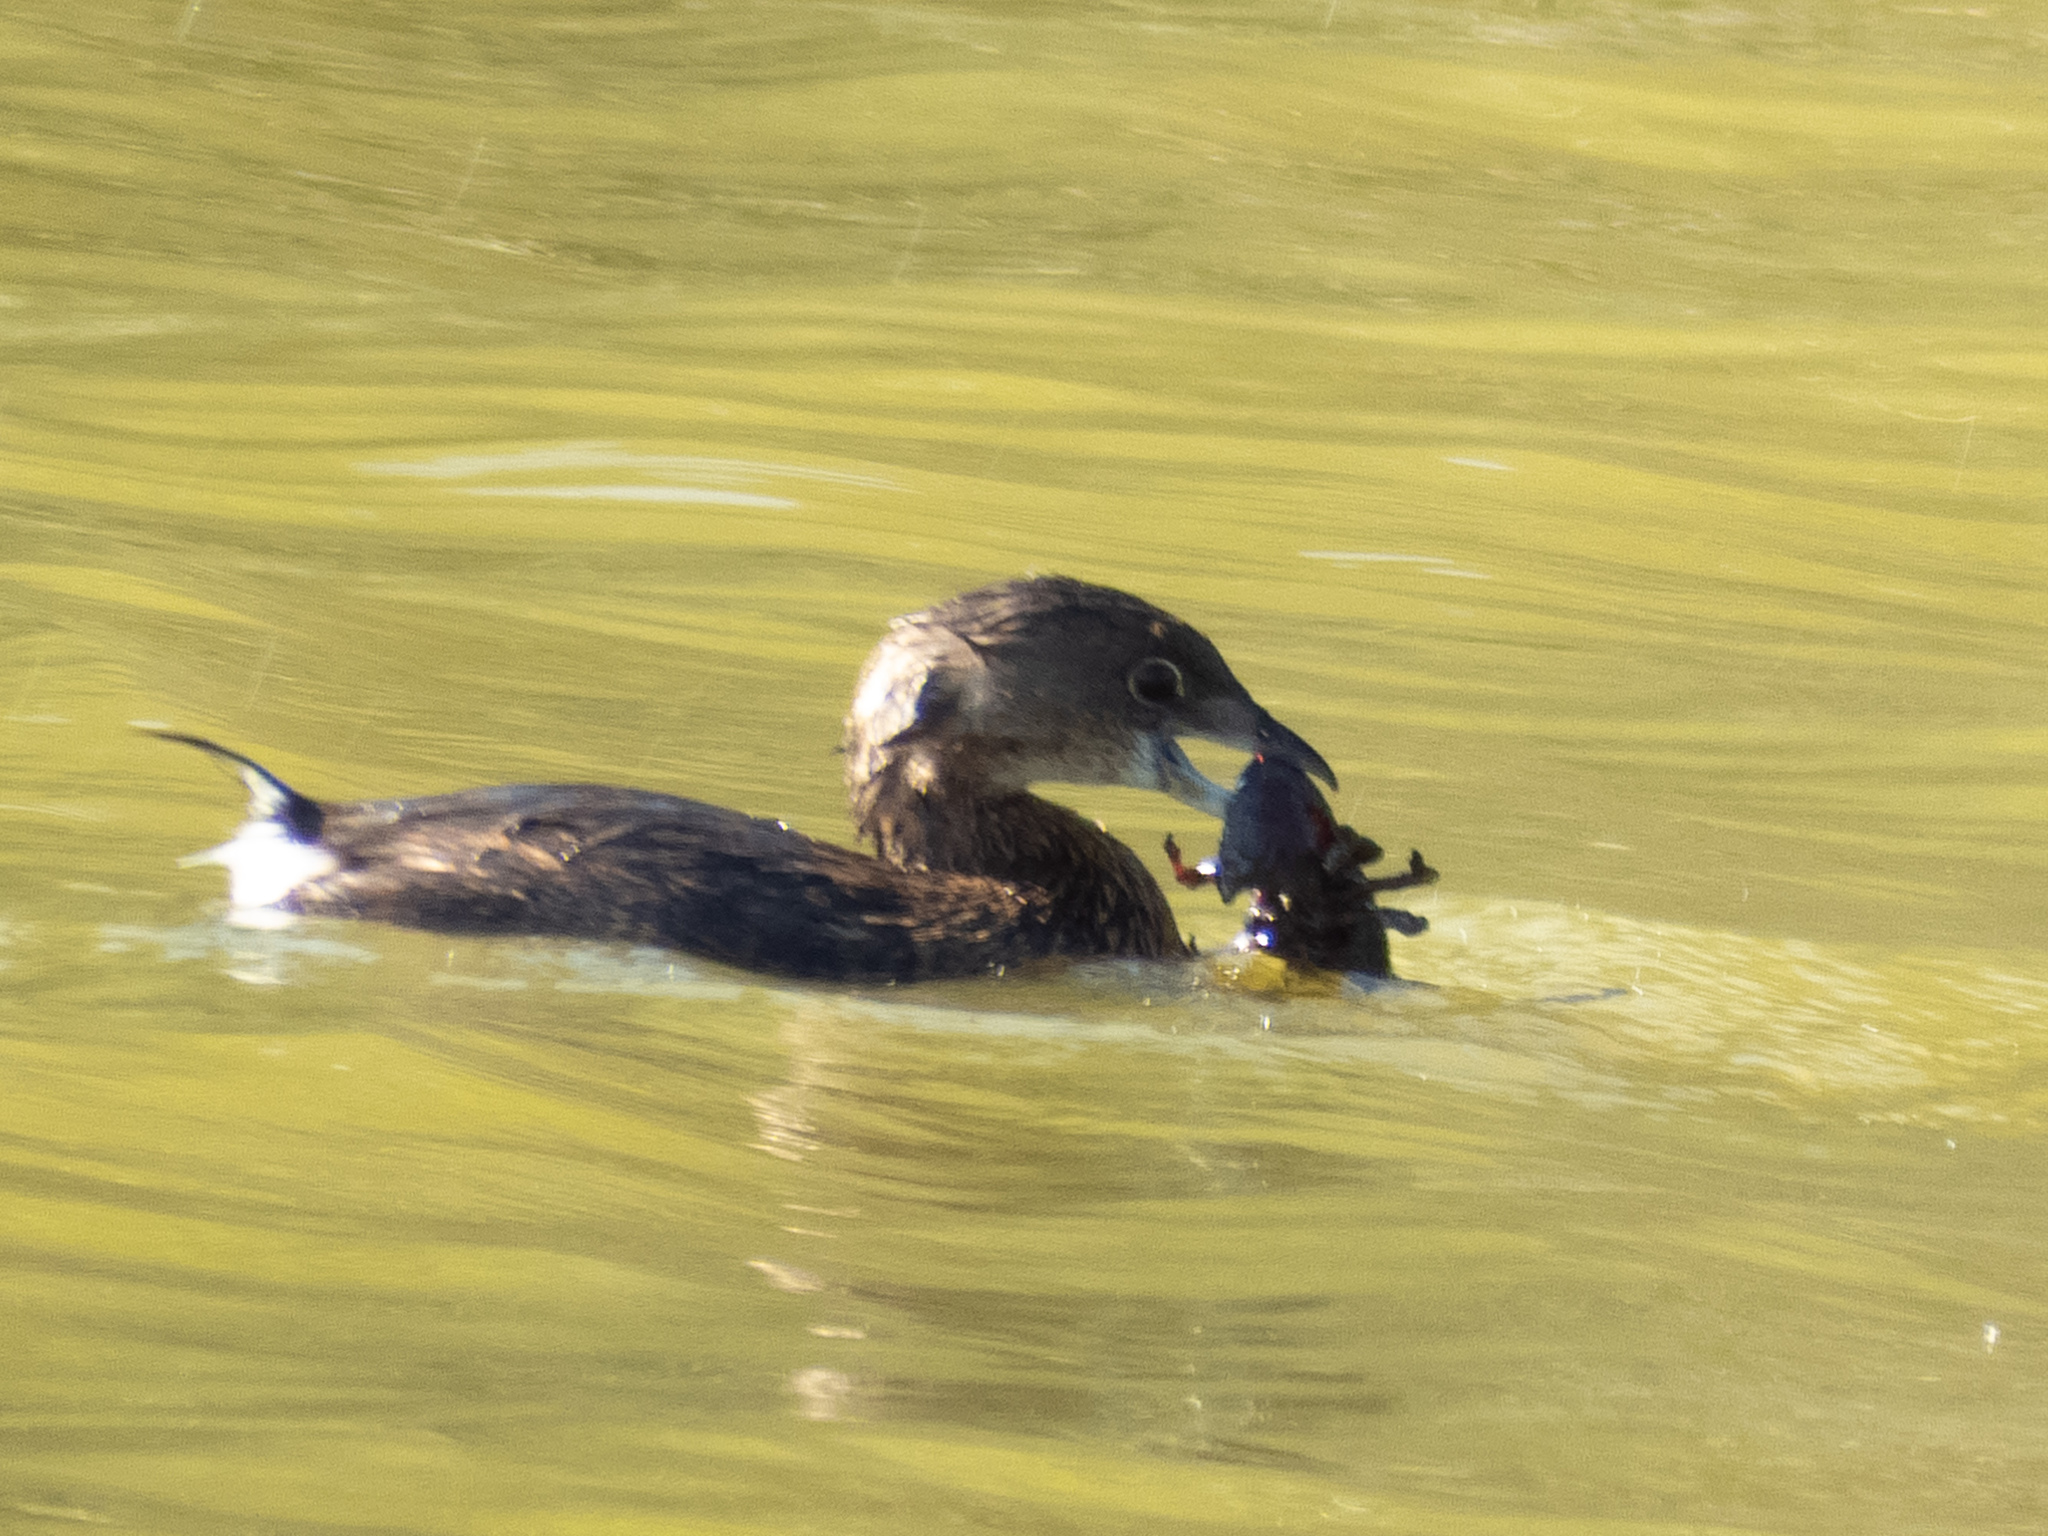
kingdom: Animalia
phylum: Chordata
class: Aves
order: Podicipediformes
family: Podicipedidae
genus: Podilymbus
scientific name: Podilymbus podiceps
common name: Pied-billed grebe
